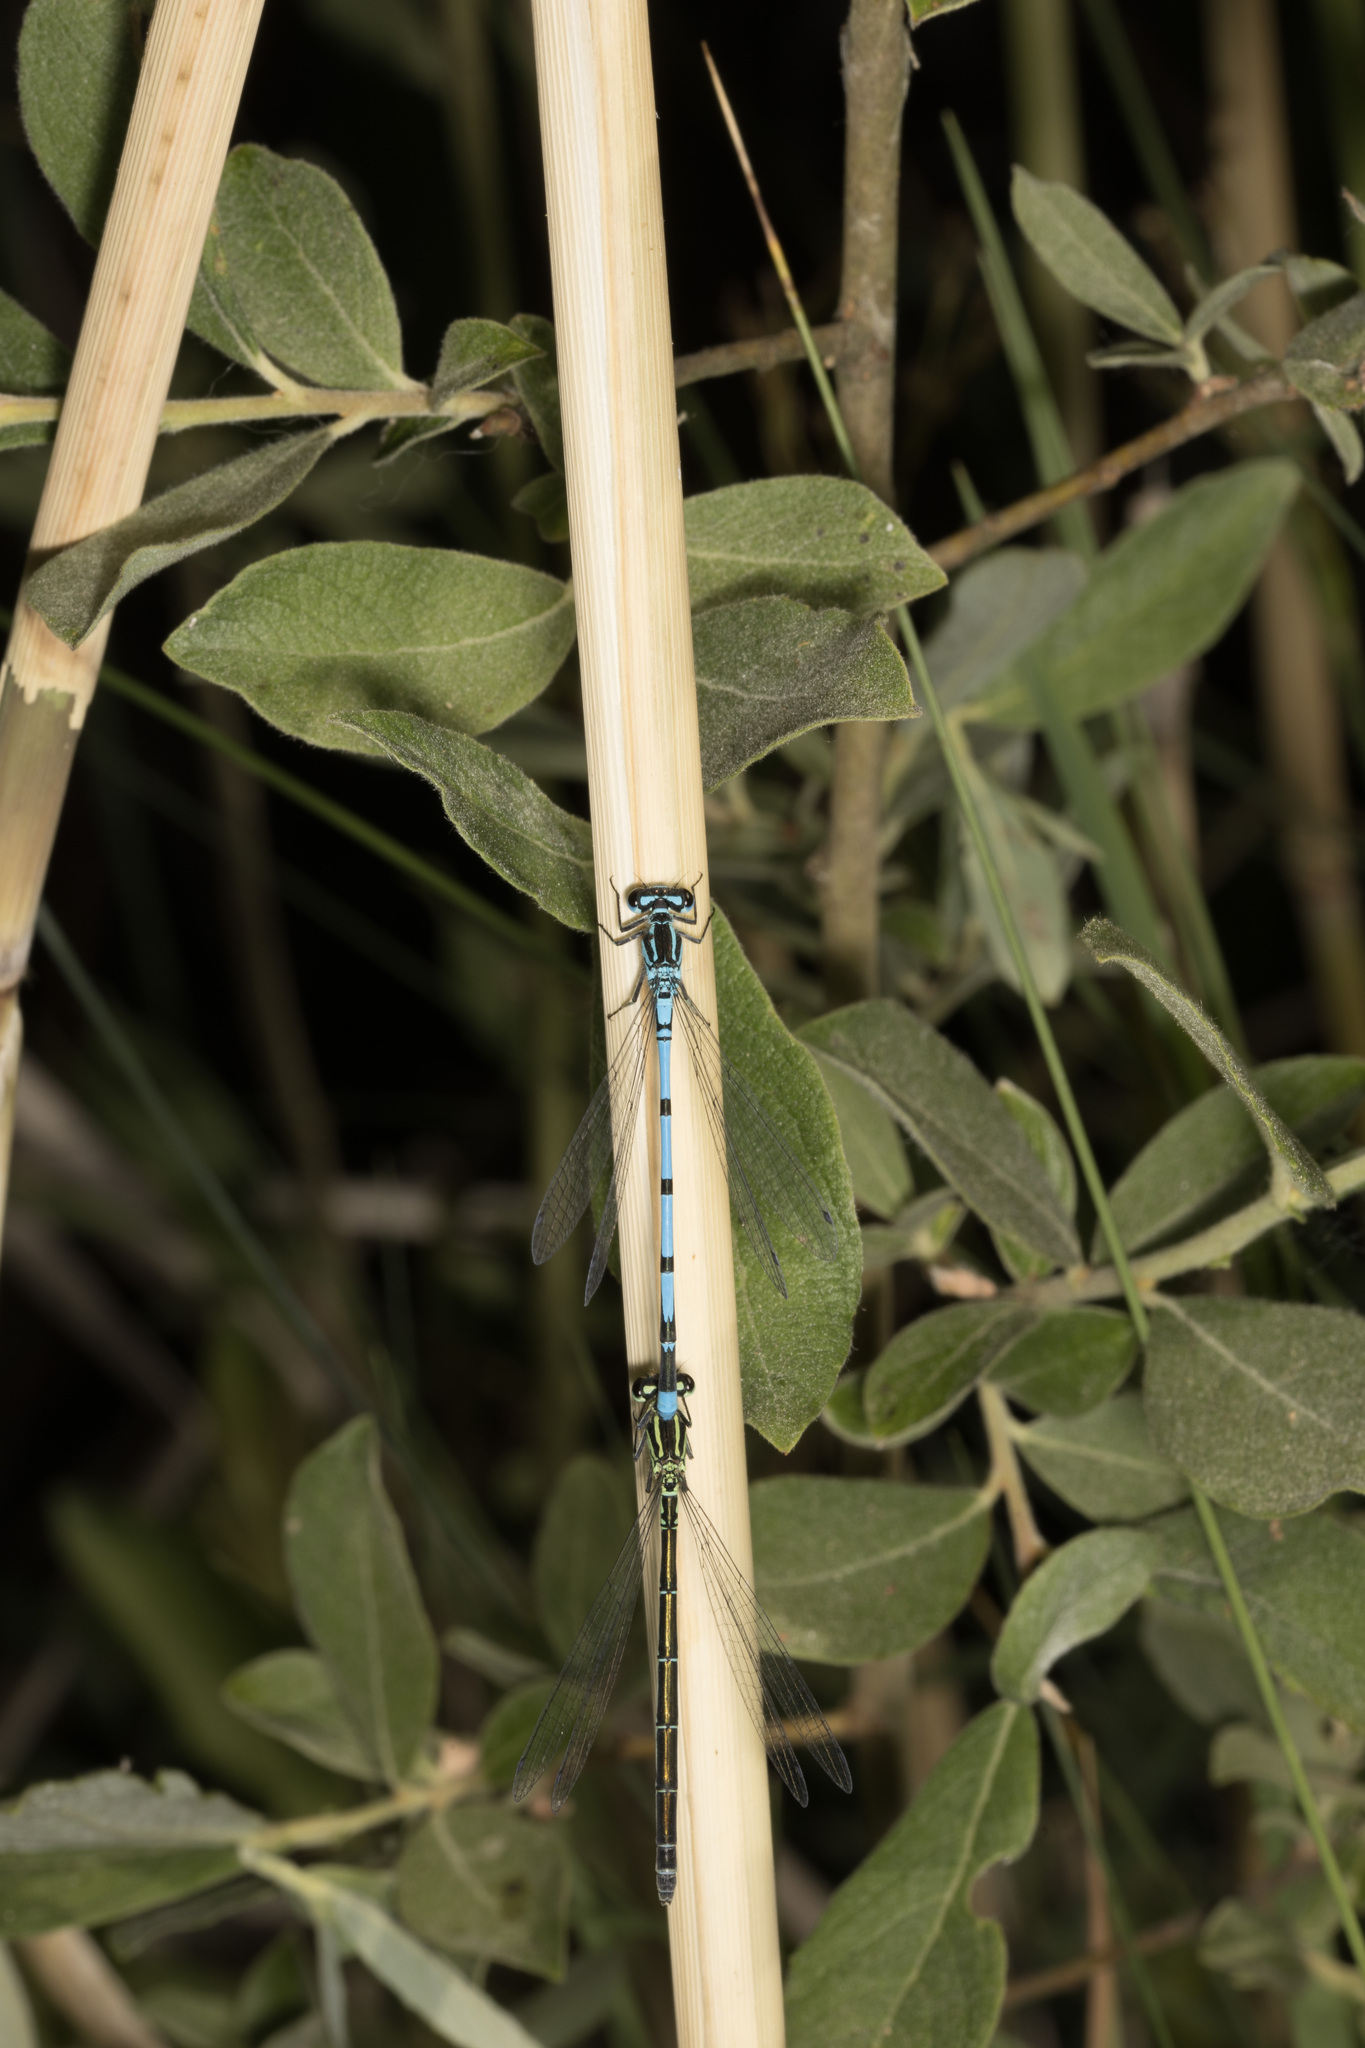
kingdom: Animalia
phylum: Arthropoda
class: Insecta
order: Odonata
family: Coenagrionidae
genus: Coenagrion
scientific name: Coenagrion puella
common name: Azure damselfly
